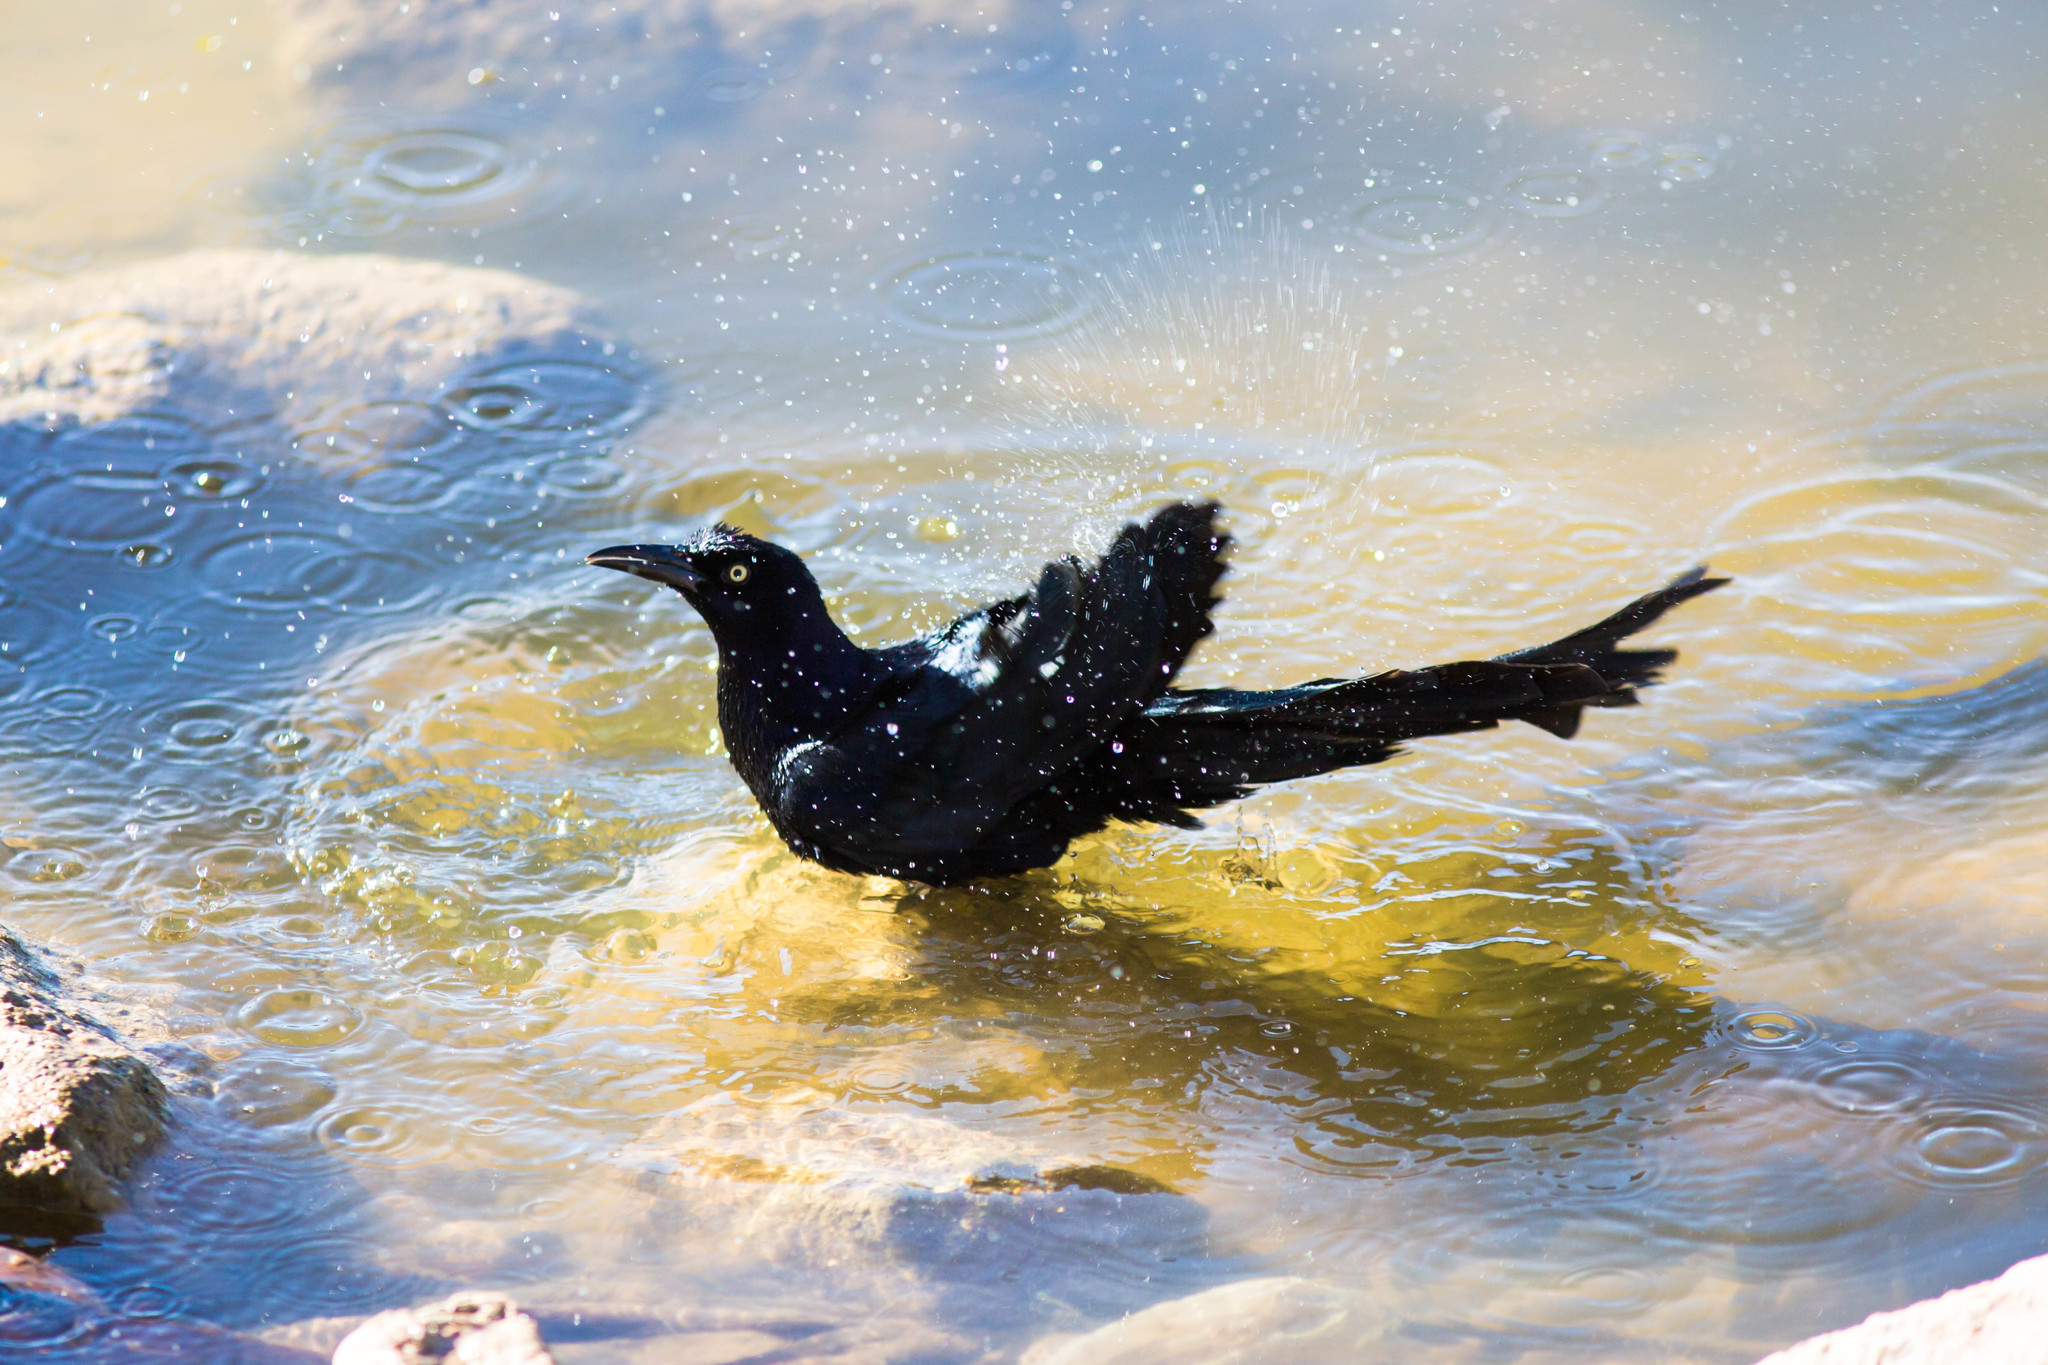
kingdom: Animalia
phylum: Chordata
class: Aves
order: Passeriformes
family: Icteridae
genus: Quiscalus
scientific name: Quiscalus mexicanus
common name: Great-tailed grackle
